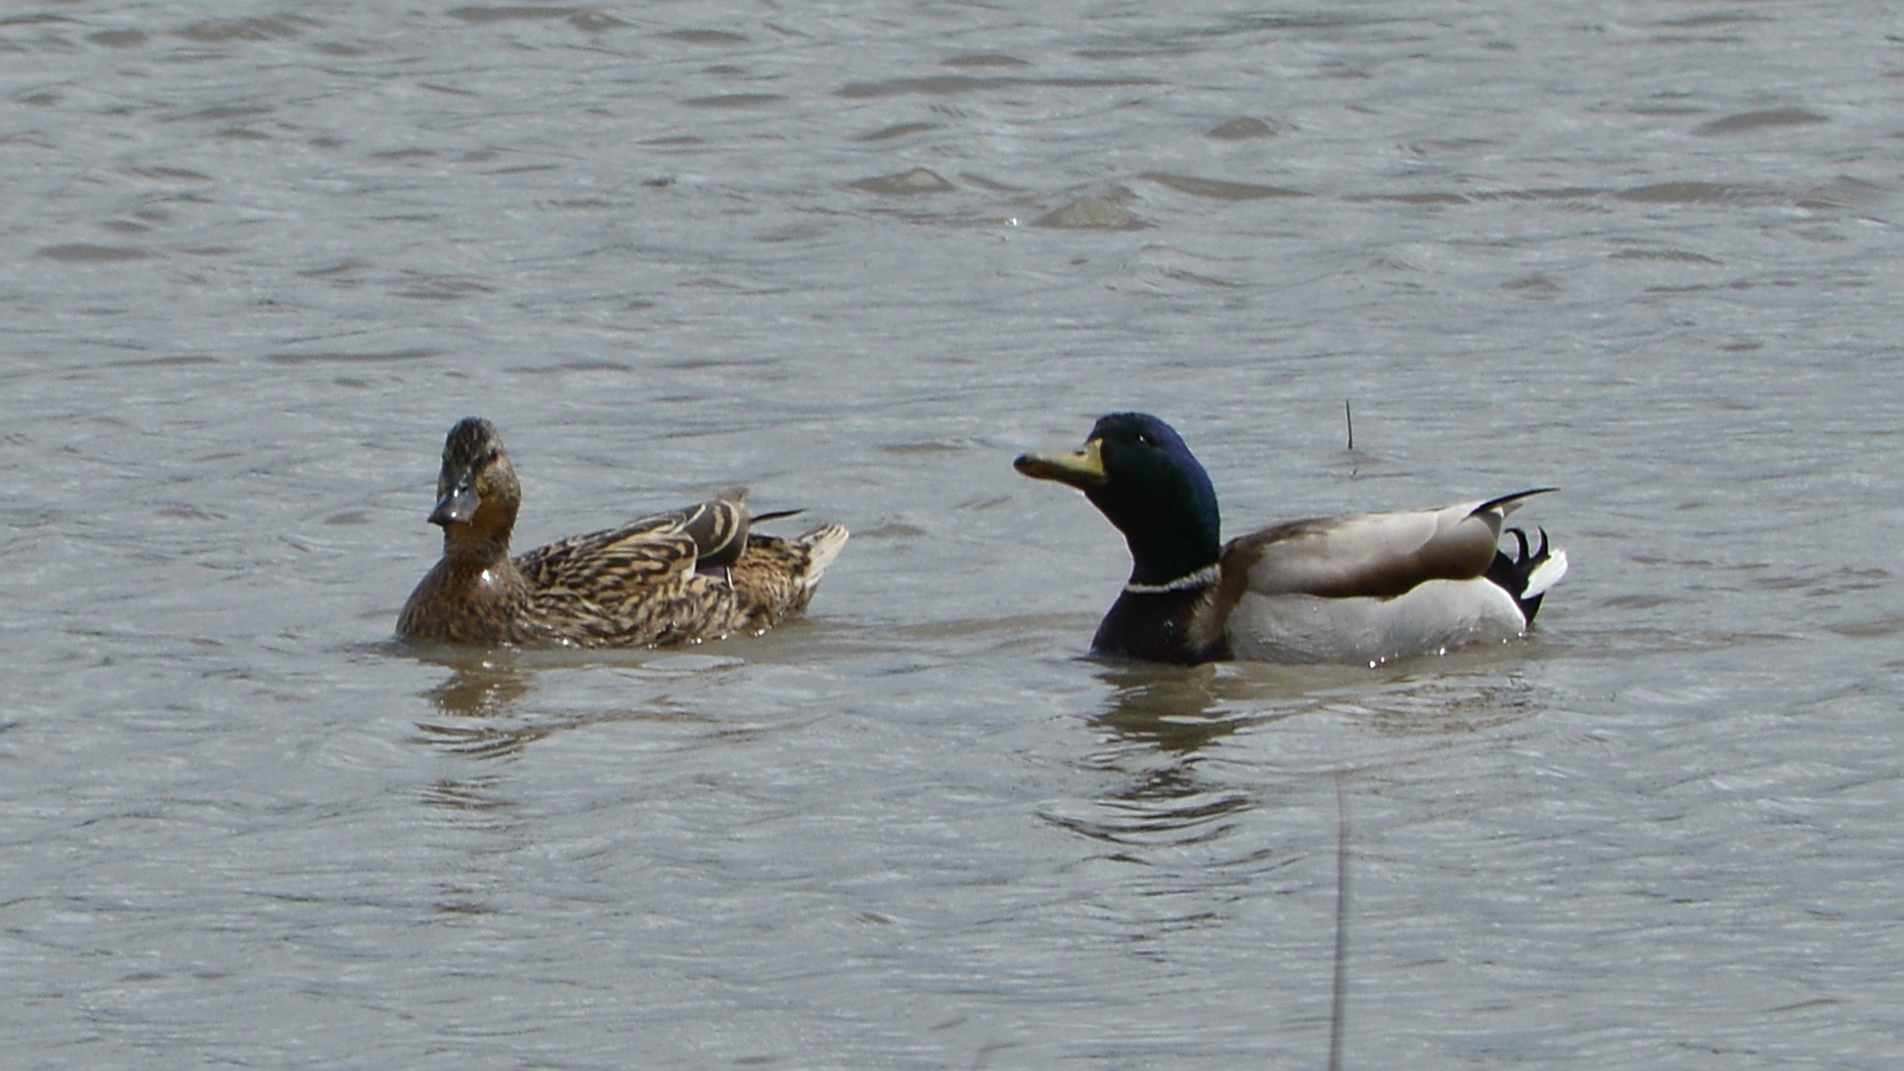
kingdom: Animalia
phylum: Chordata
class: Aves
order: Anseriformes
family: Anatidae
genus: Anas
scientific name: Anas platyrhynchos
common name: Mallard
